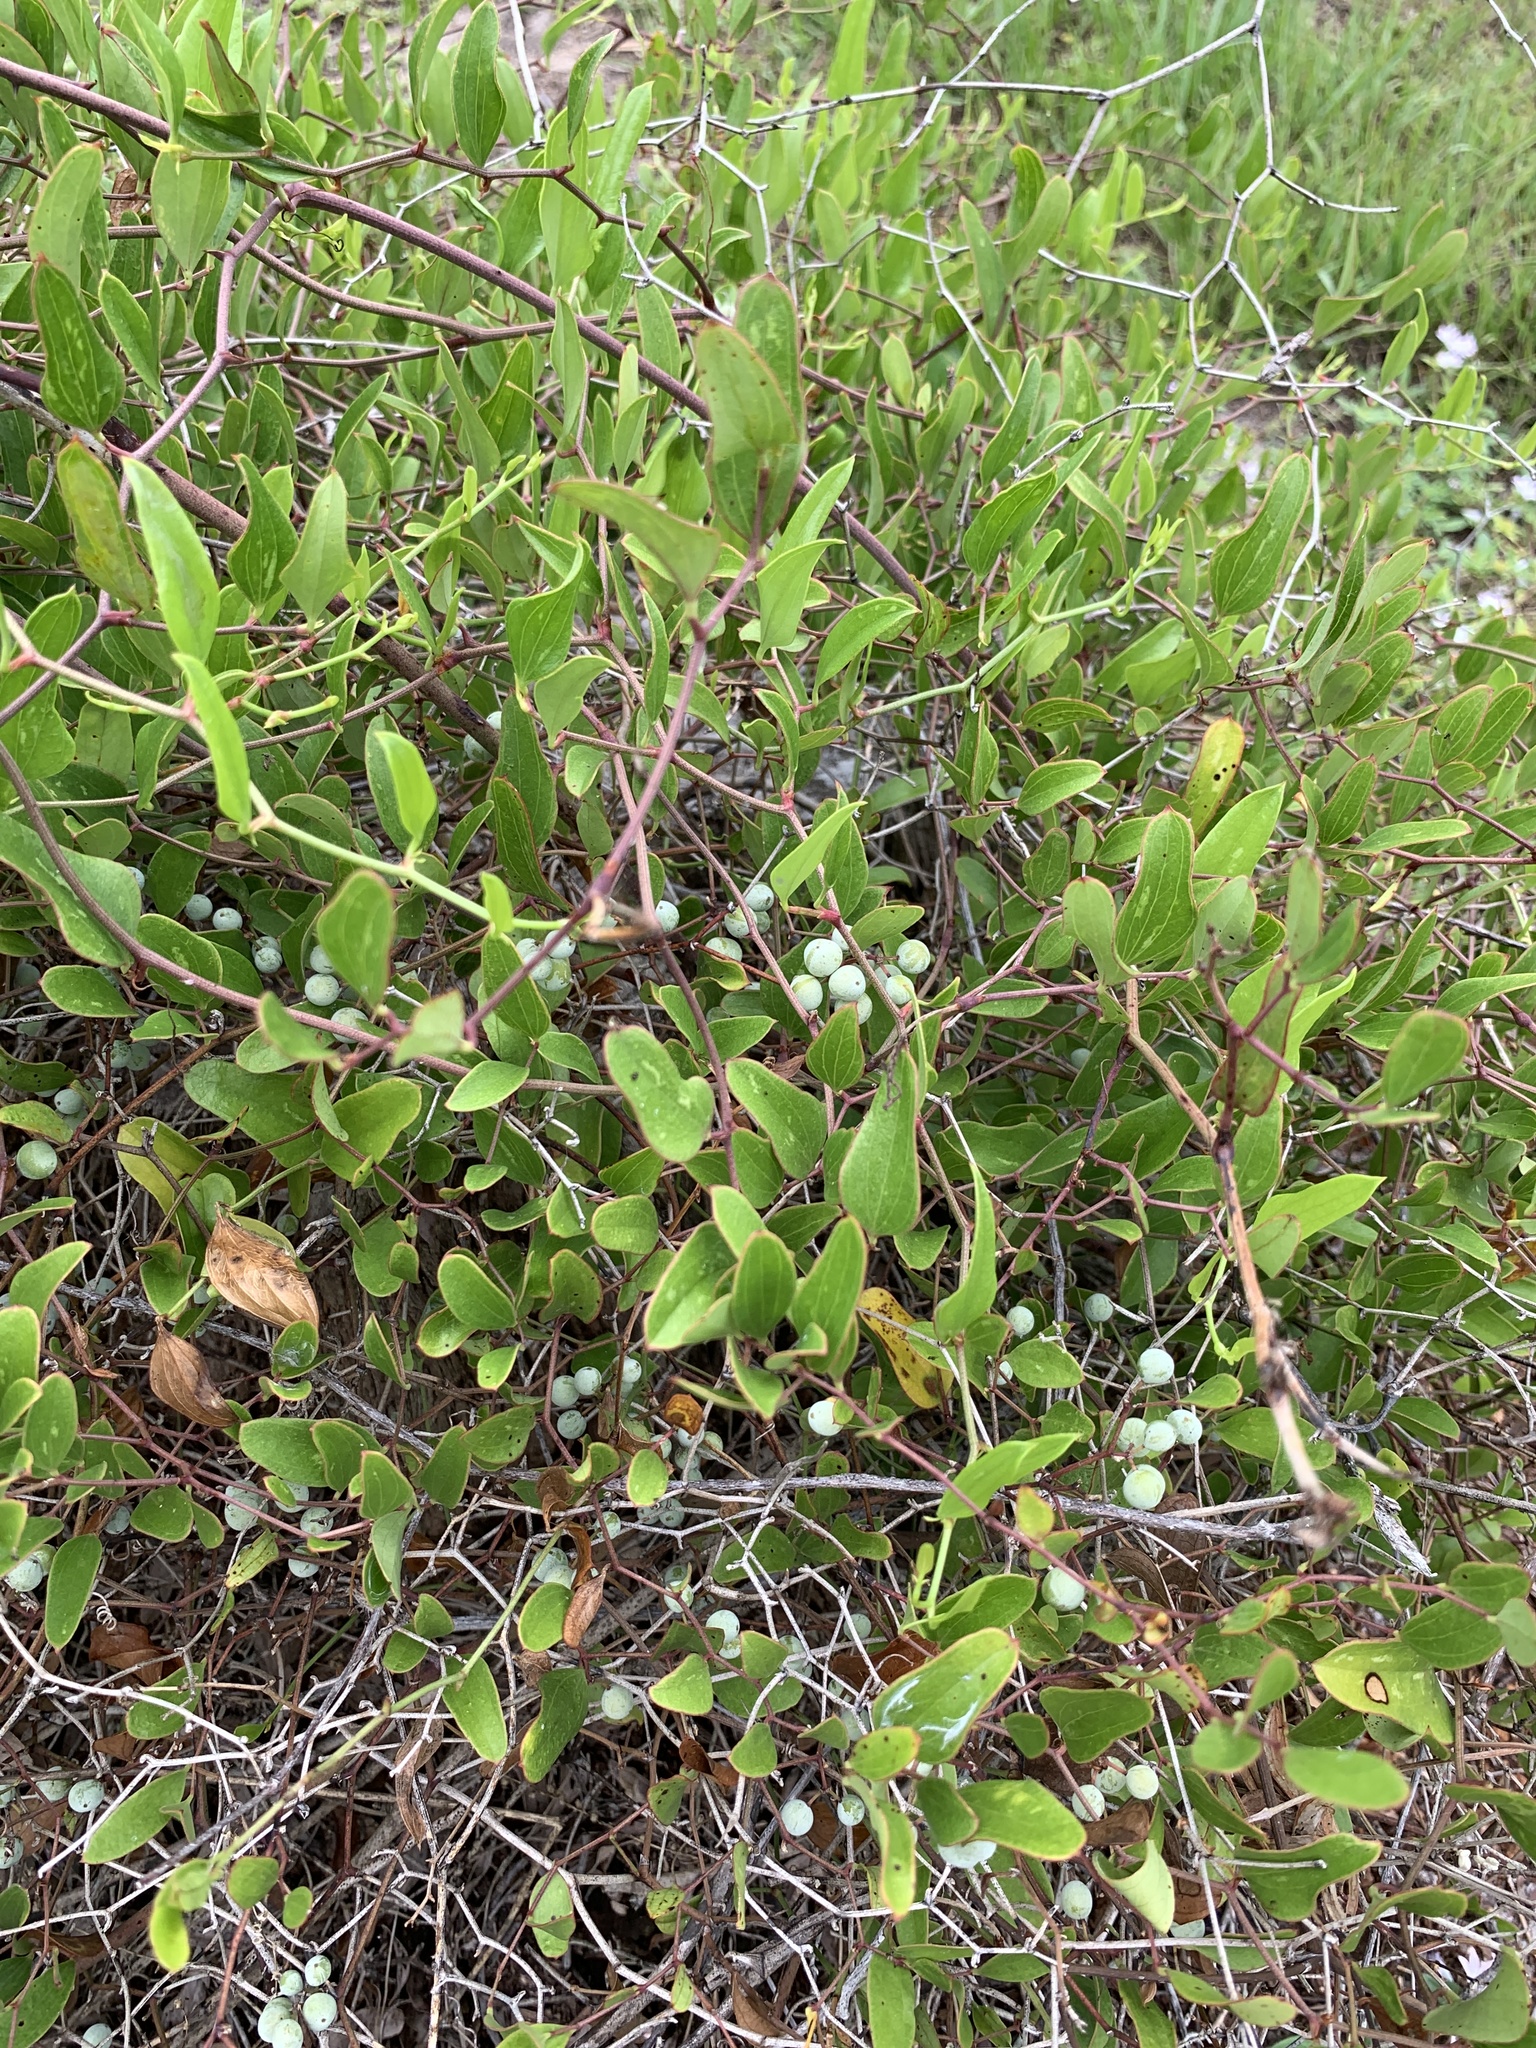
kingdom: Plantae
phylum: Tracheophyta
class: Liliopsida
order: Liliales
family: Smilacaceae
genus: Smilax
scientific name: Smilax auriculata
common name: Wild bamboo
